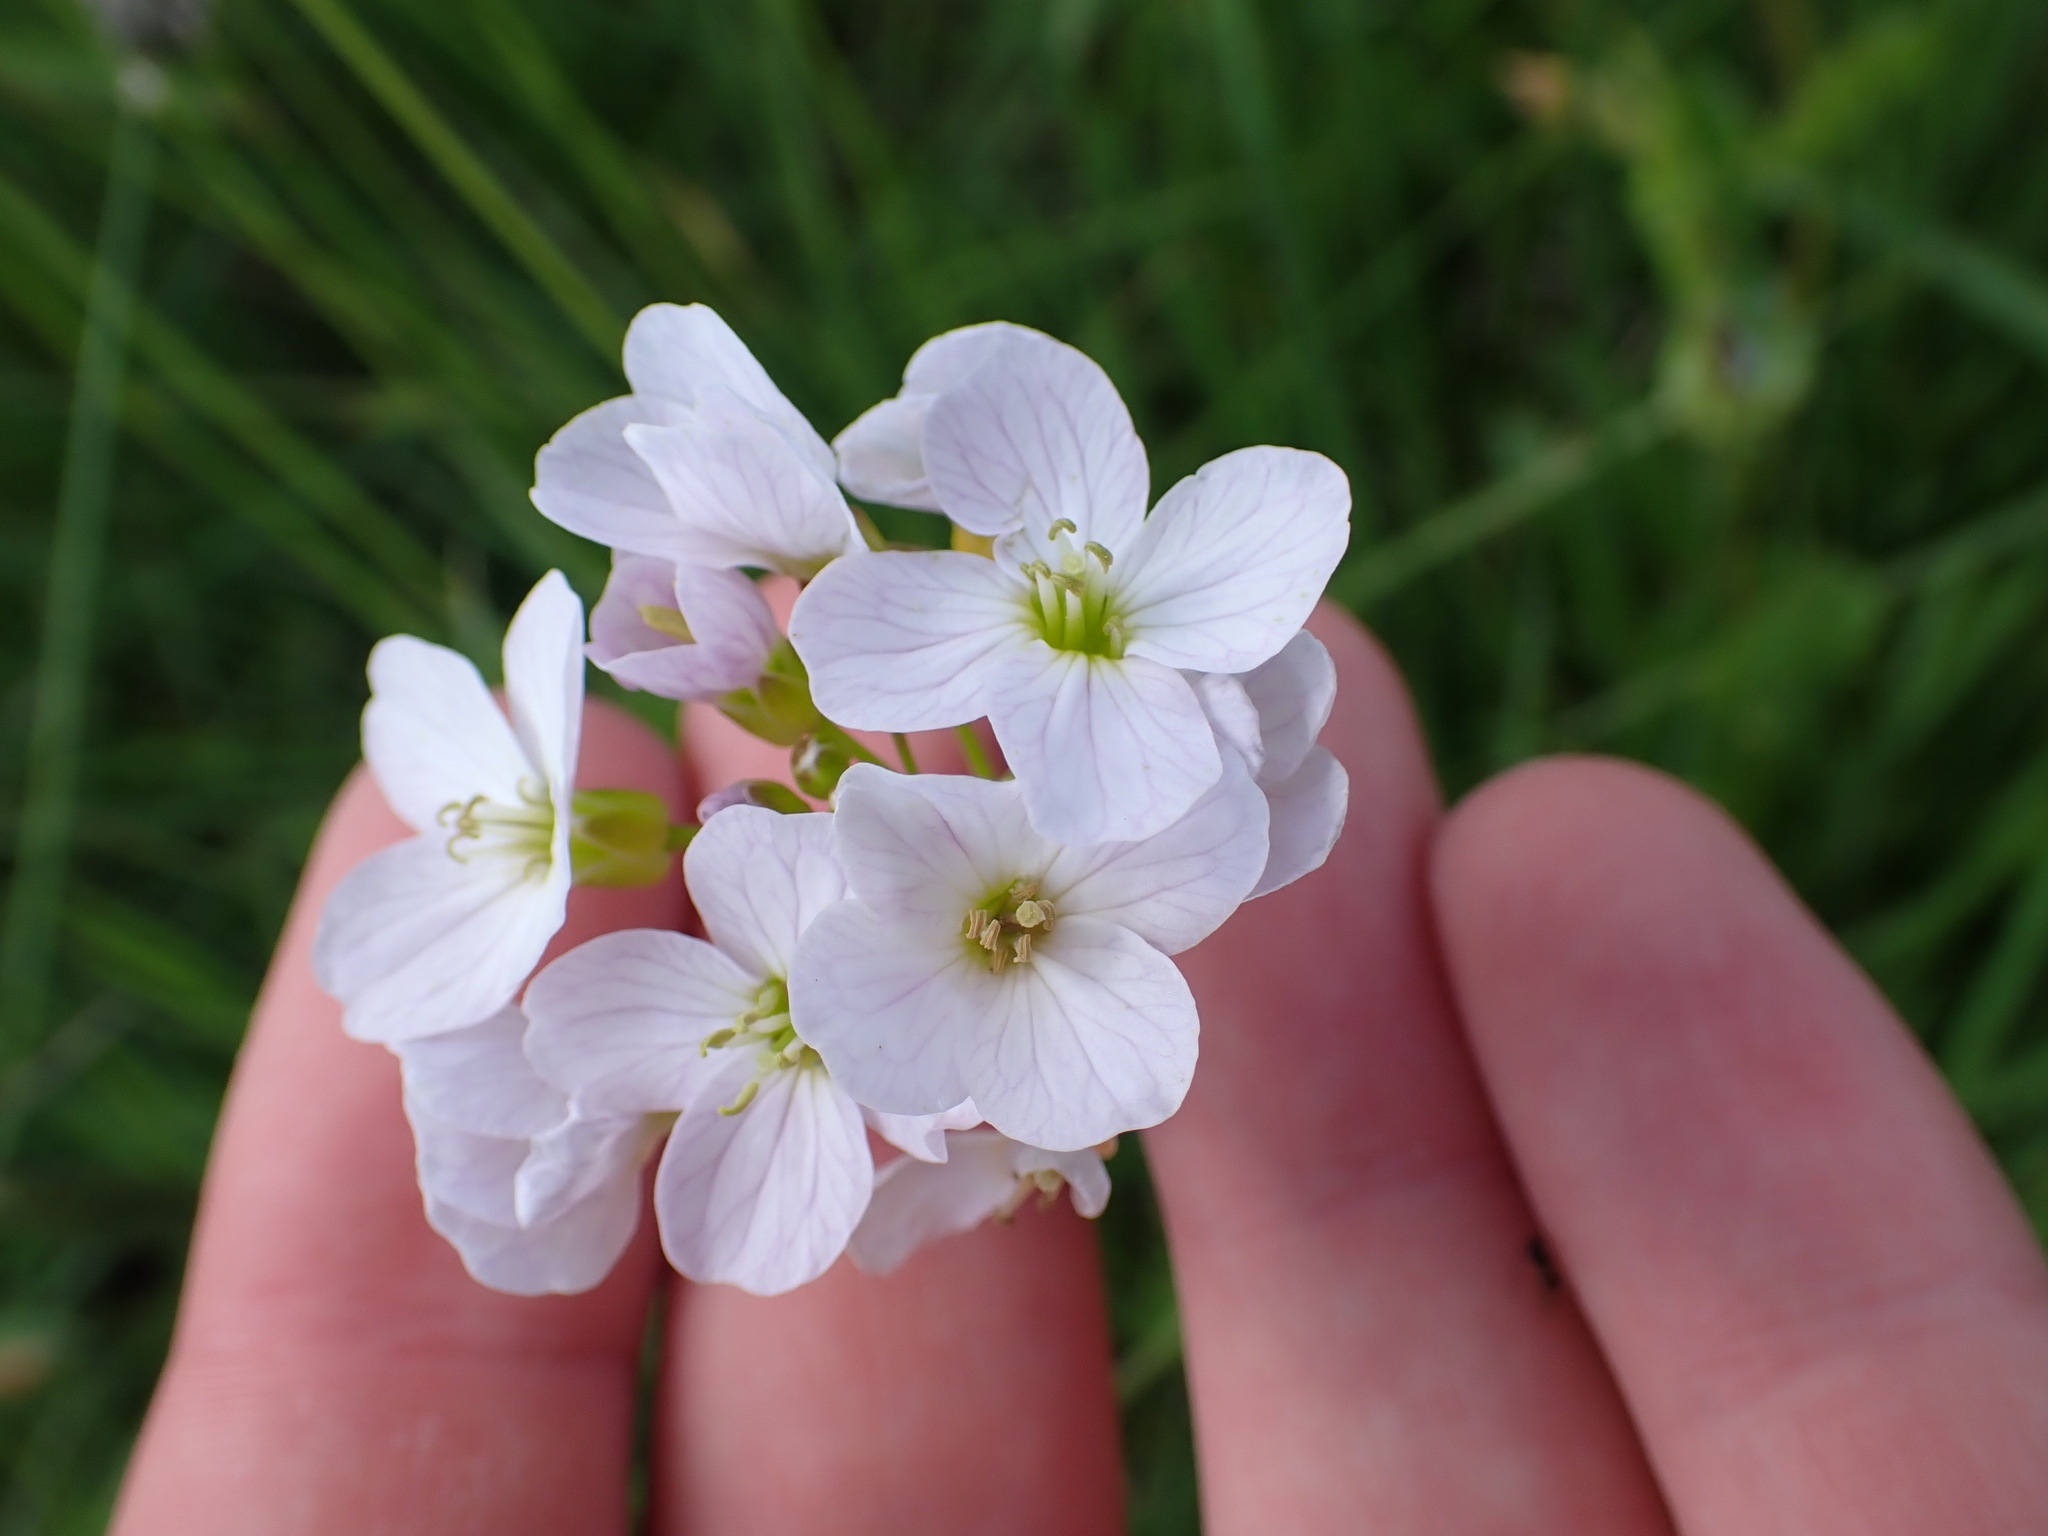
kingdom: Plantae
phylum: Tracheophyta
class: Magnoliopsida
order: Brassicales
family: Brassicaceae
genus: Cardamine
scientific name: Cardamine pratensis
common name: Cuckoo flower
